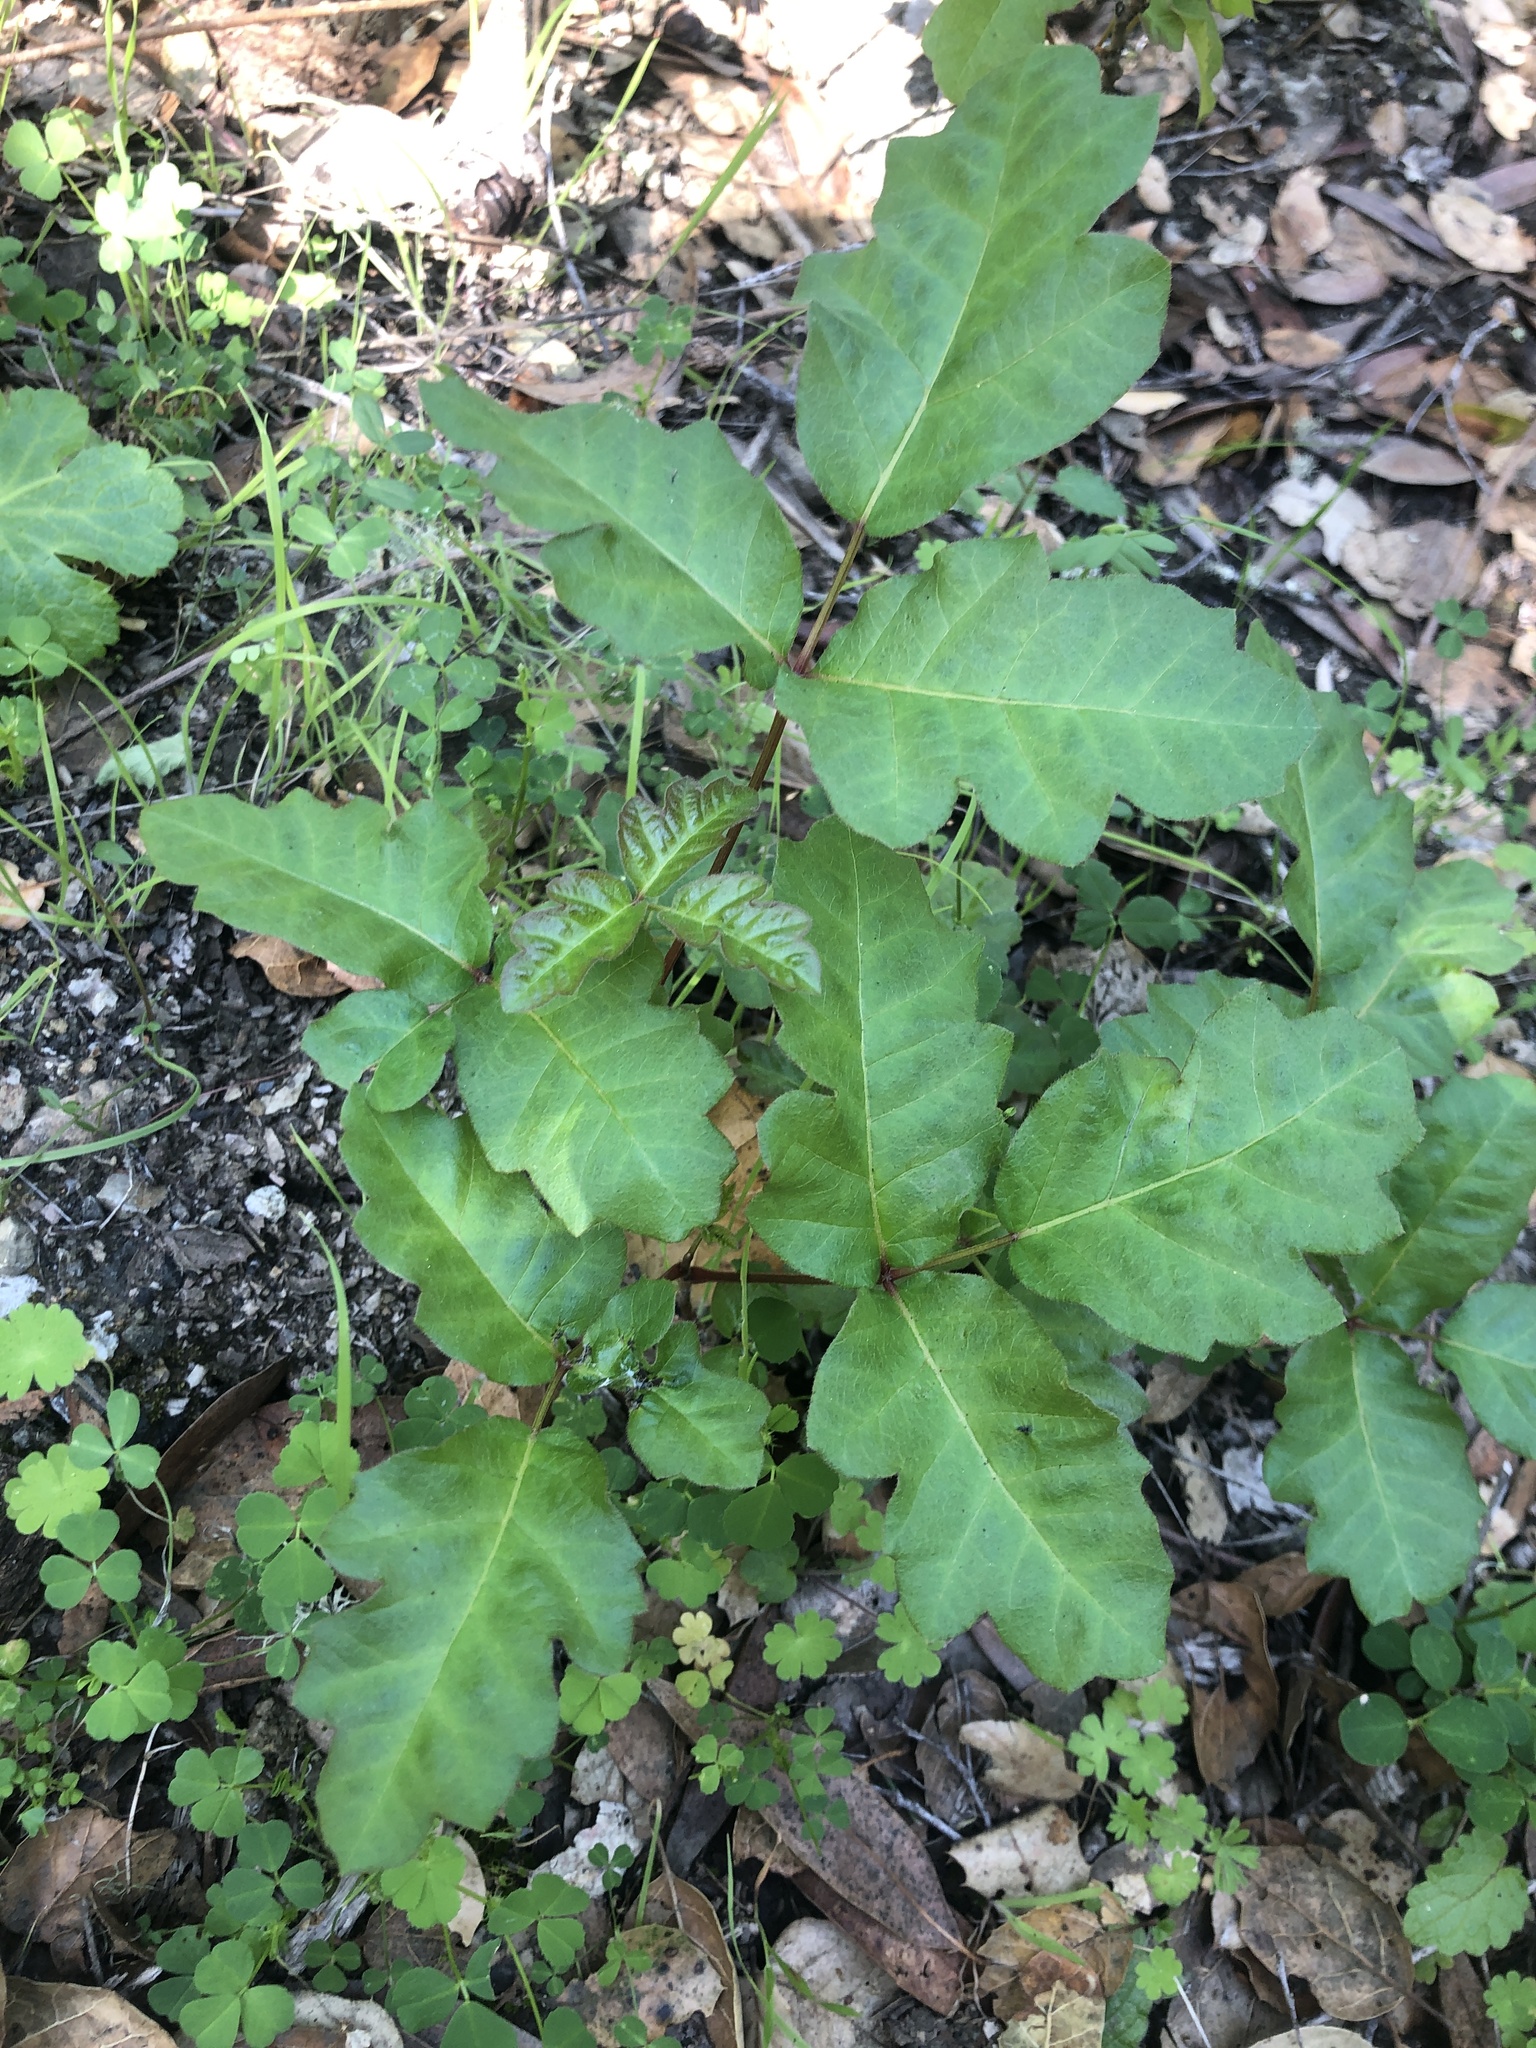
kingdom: Plantae
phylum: Tracheophyta
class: Magnoliopsida
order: Sapindales
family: Anacardiaceae
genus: Toxicodendron
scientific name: Toxicodendron diversilobum
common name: Pacific poison-oak
